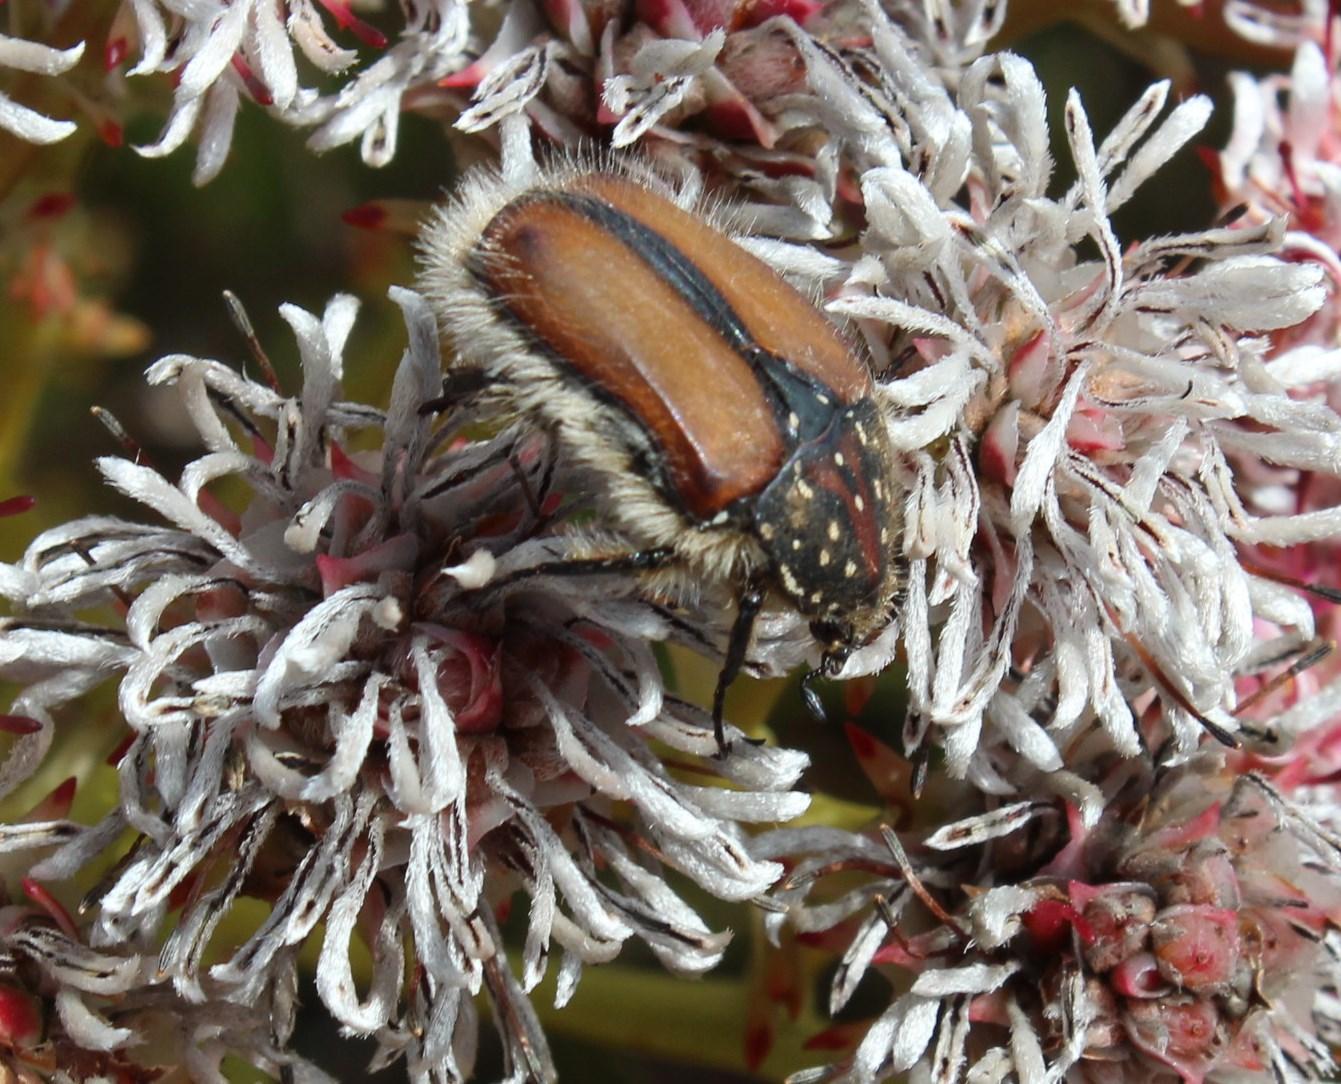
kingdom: Animalia
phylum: Arthropoda
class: Insecta
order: Coleoptera
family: Scarabaeidae
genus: Trichostetha
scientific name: Trichostetha capensis
